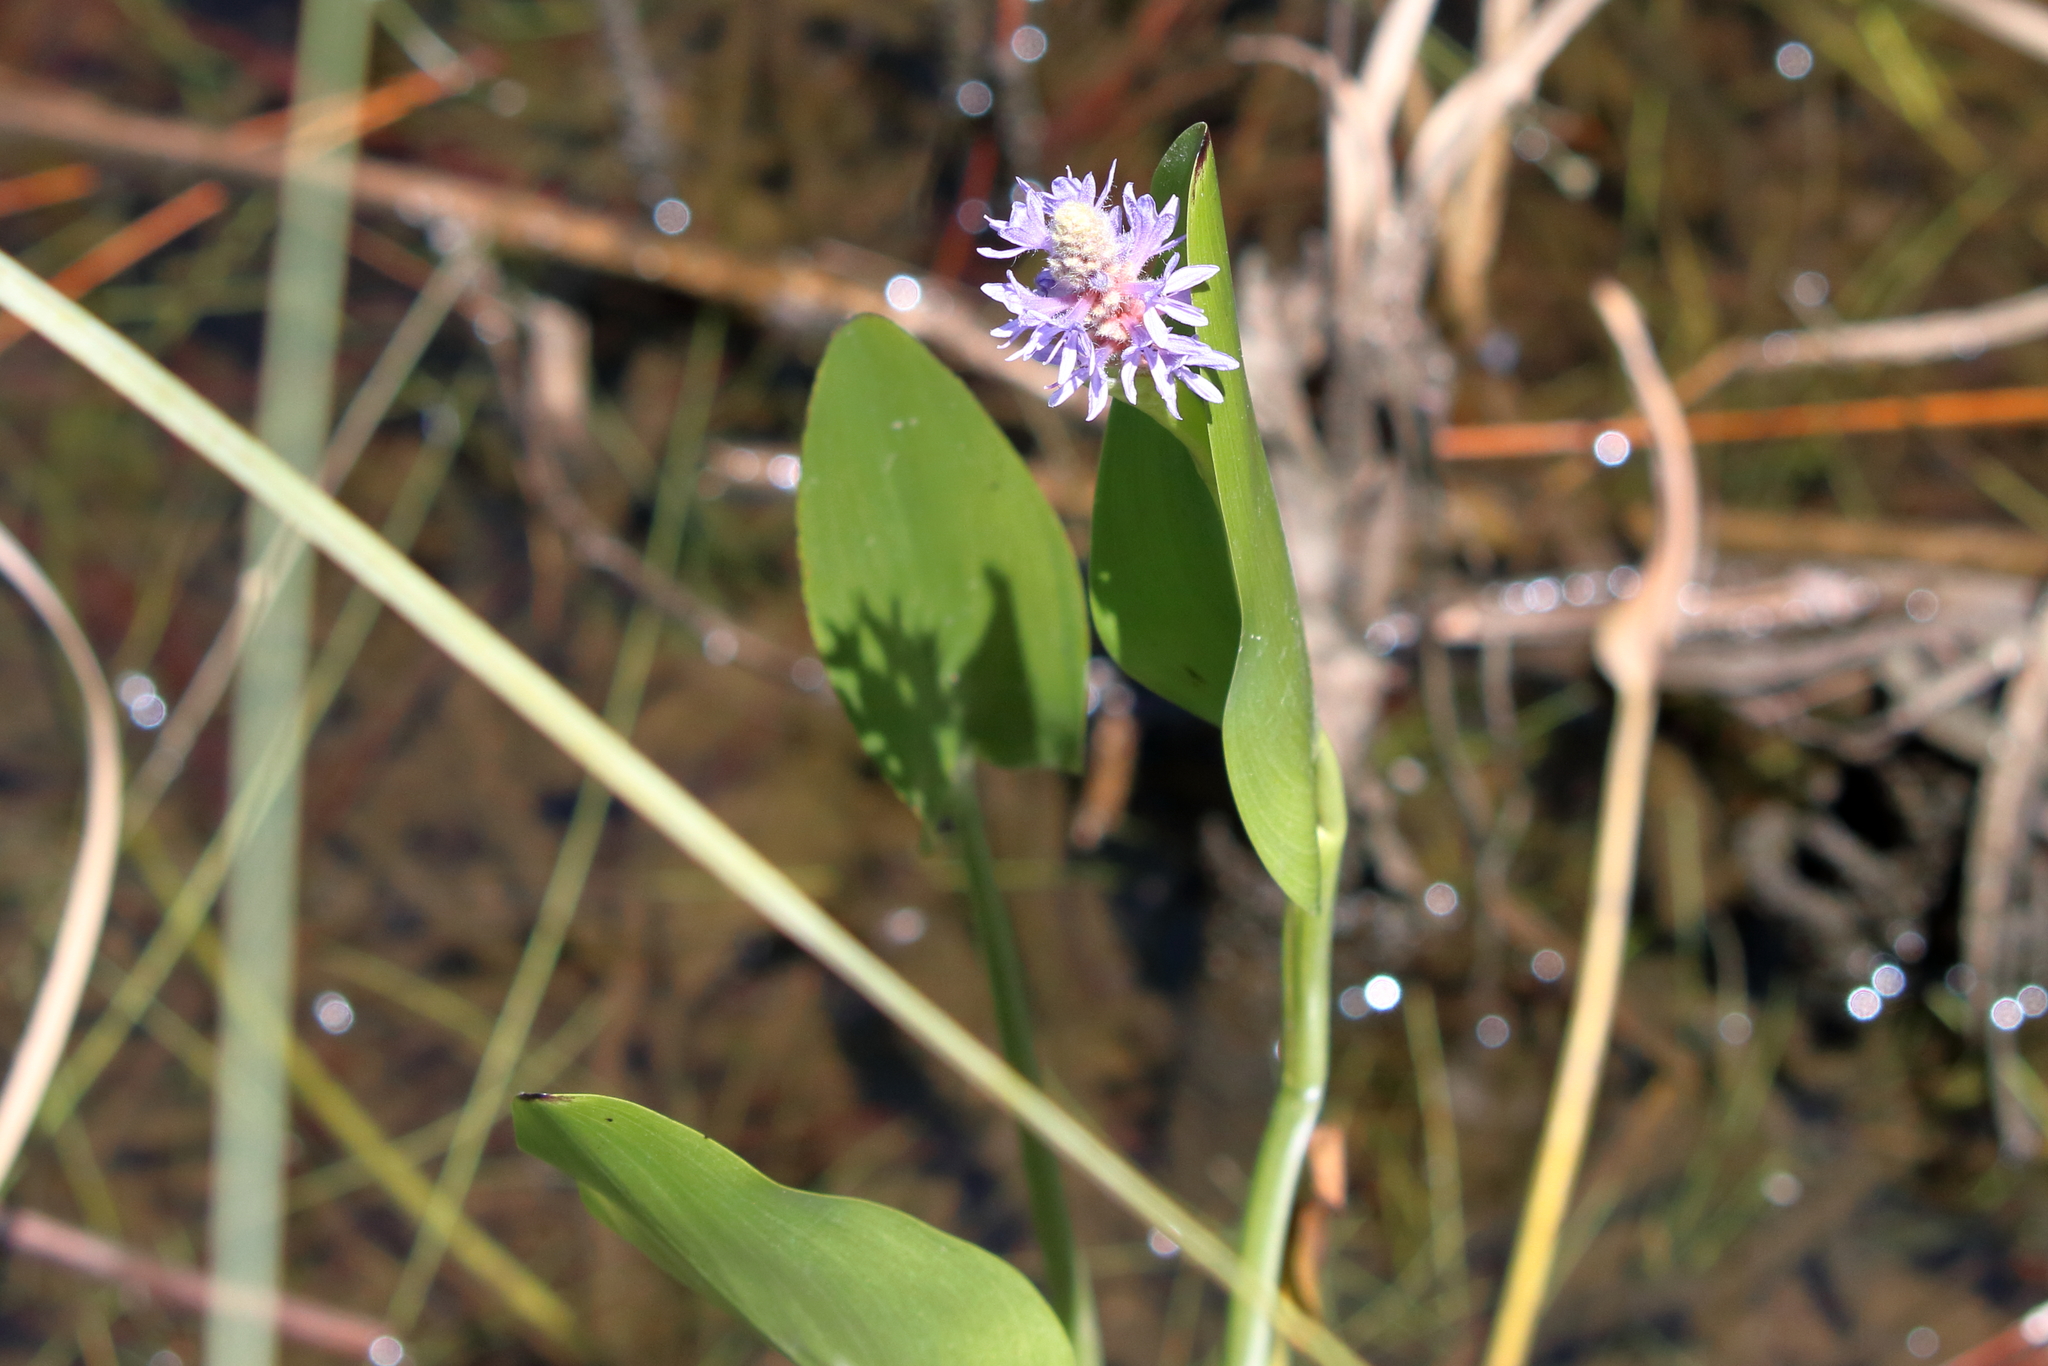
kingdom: Plantae
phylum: Tracheophyta
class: Liliopsida
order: Commelinales
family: Pontederiaceae
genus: Pontederia
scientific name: Pontederia cordata
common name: Pickerelweed
